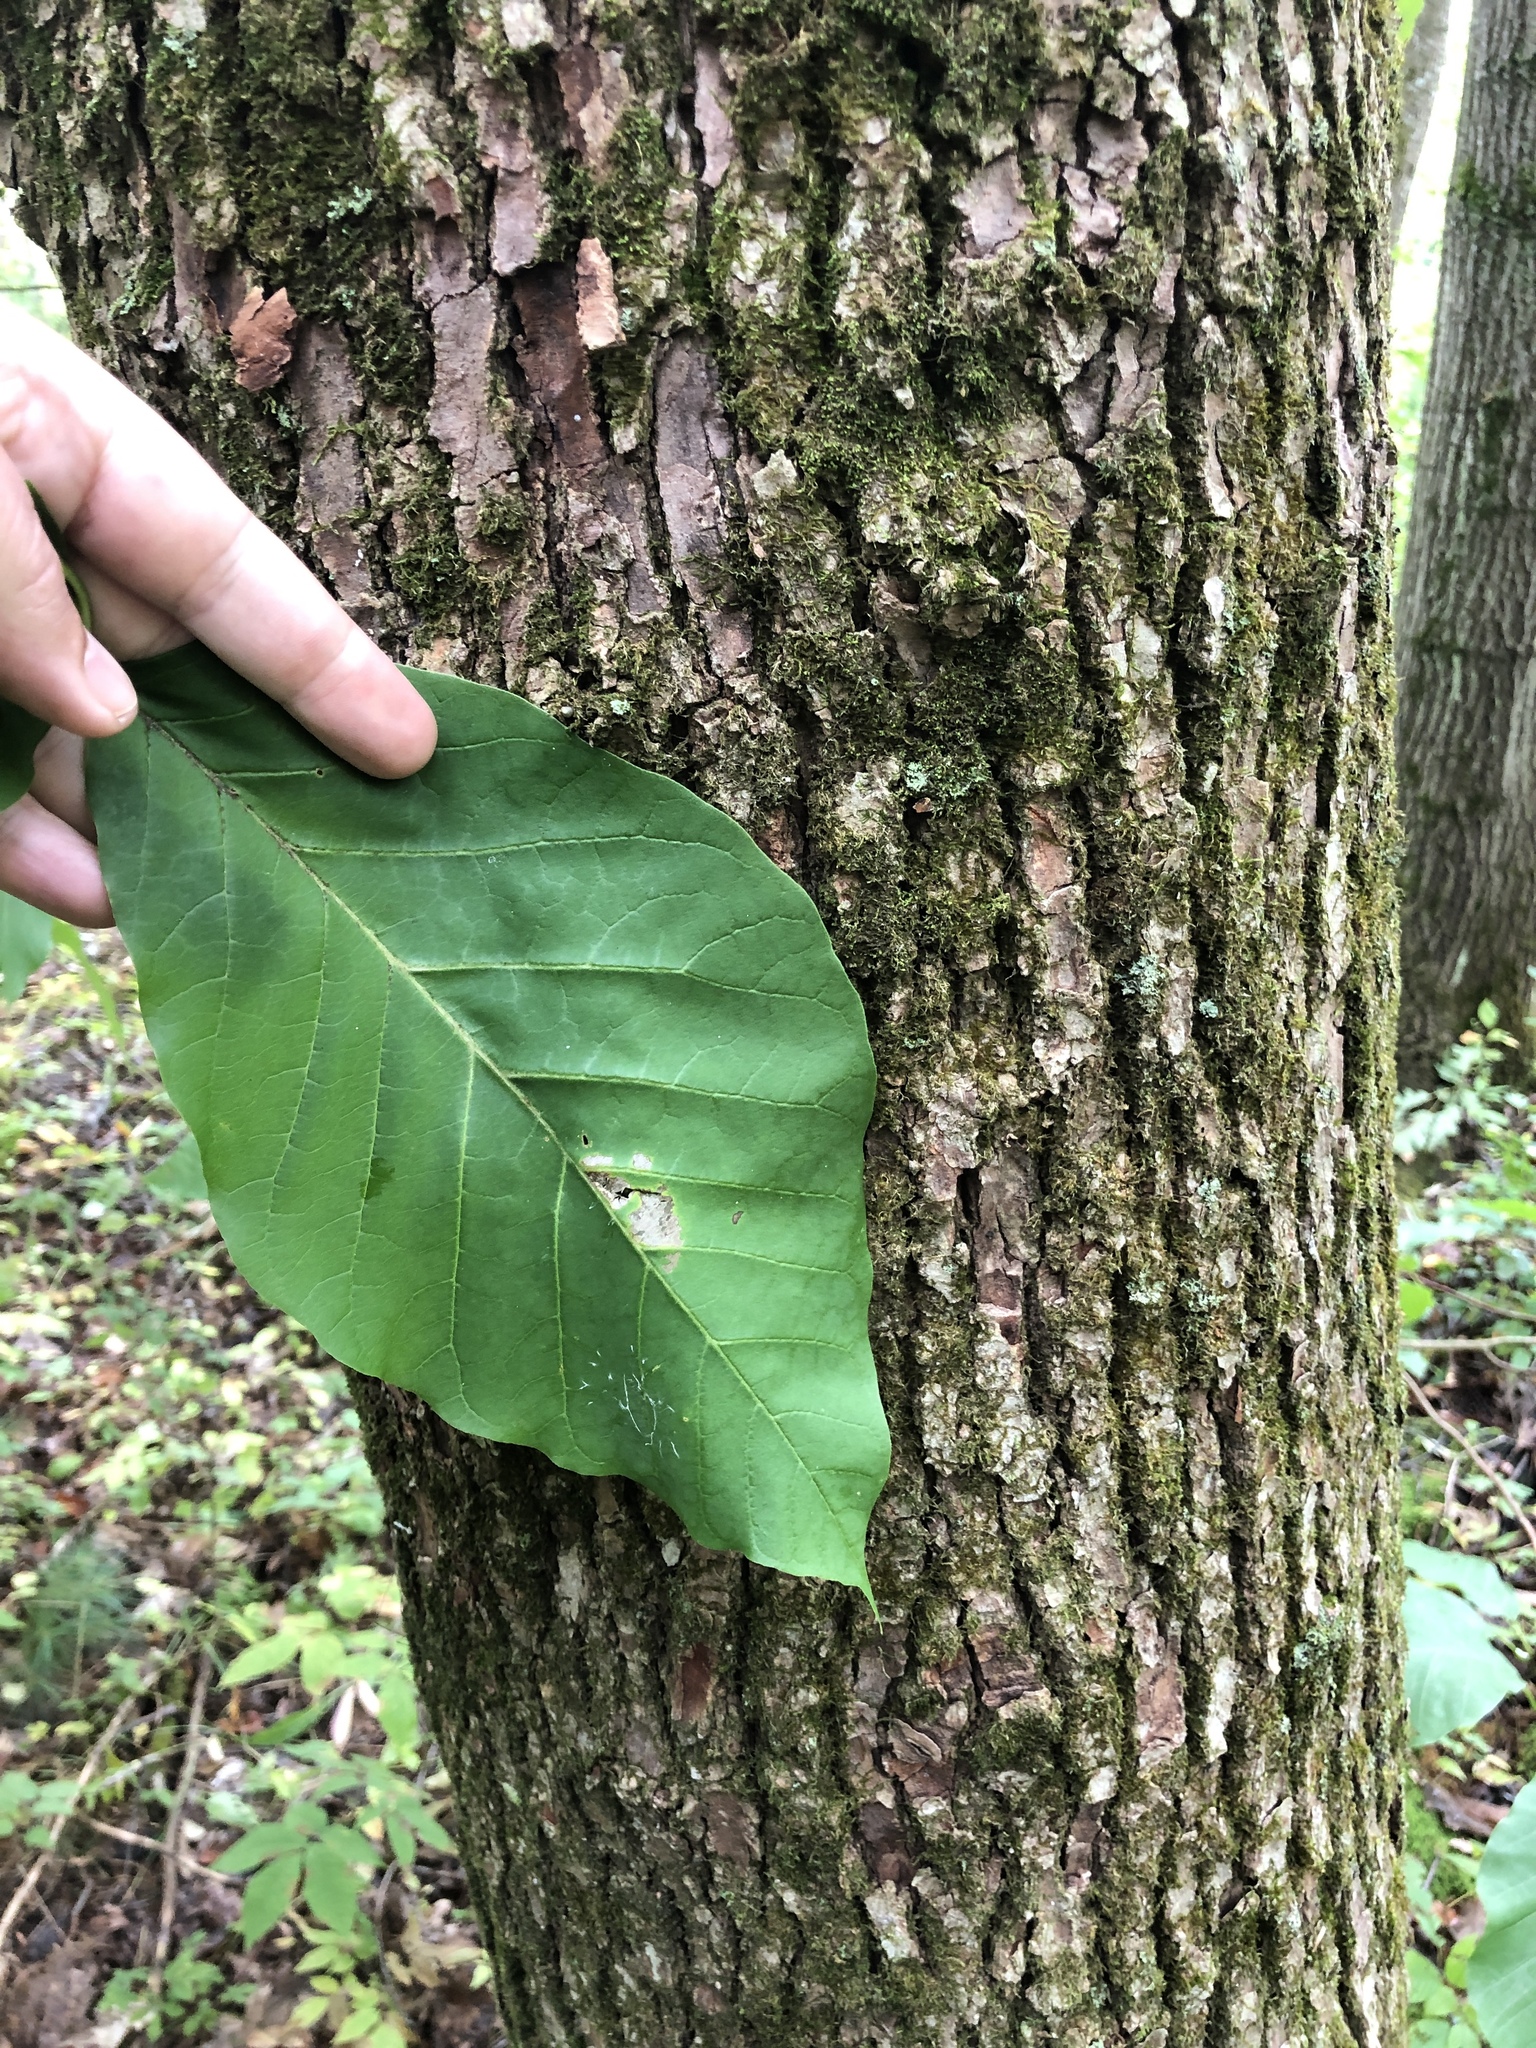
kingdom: Plantae
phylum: Tracheophyta
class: Magnoliopsida
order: Magnoliales
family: Magnoliaceae
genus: Magnolia
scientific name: Magnolia acuminata
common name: Cucumber magnolia
